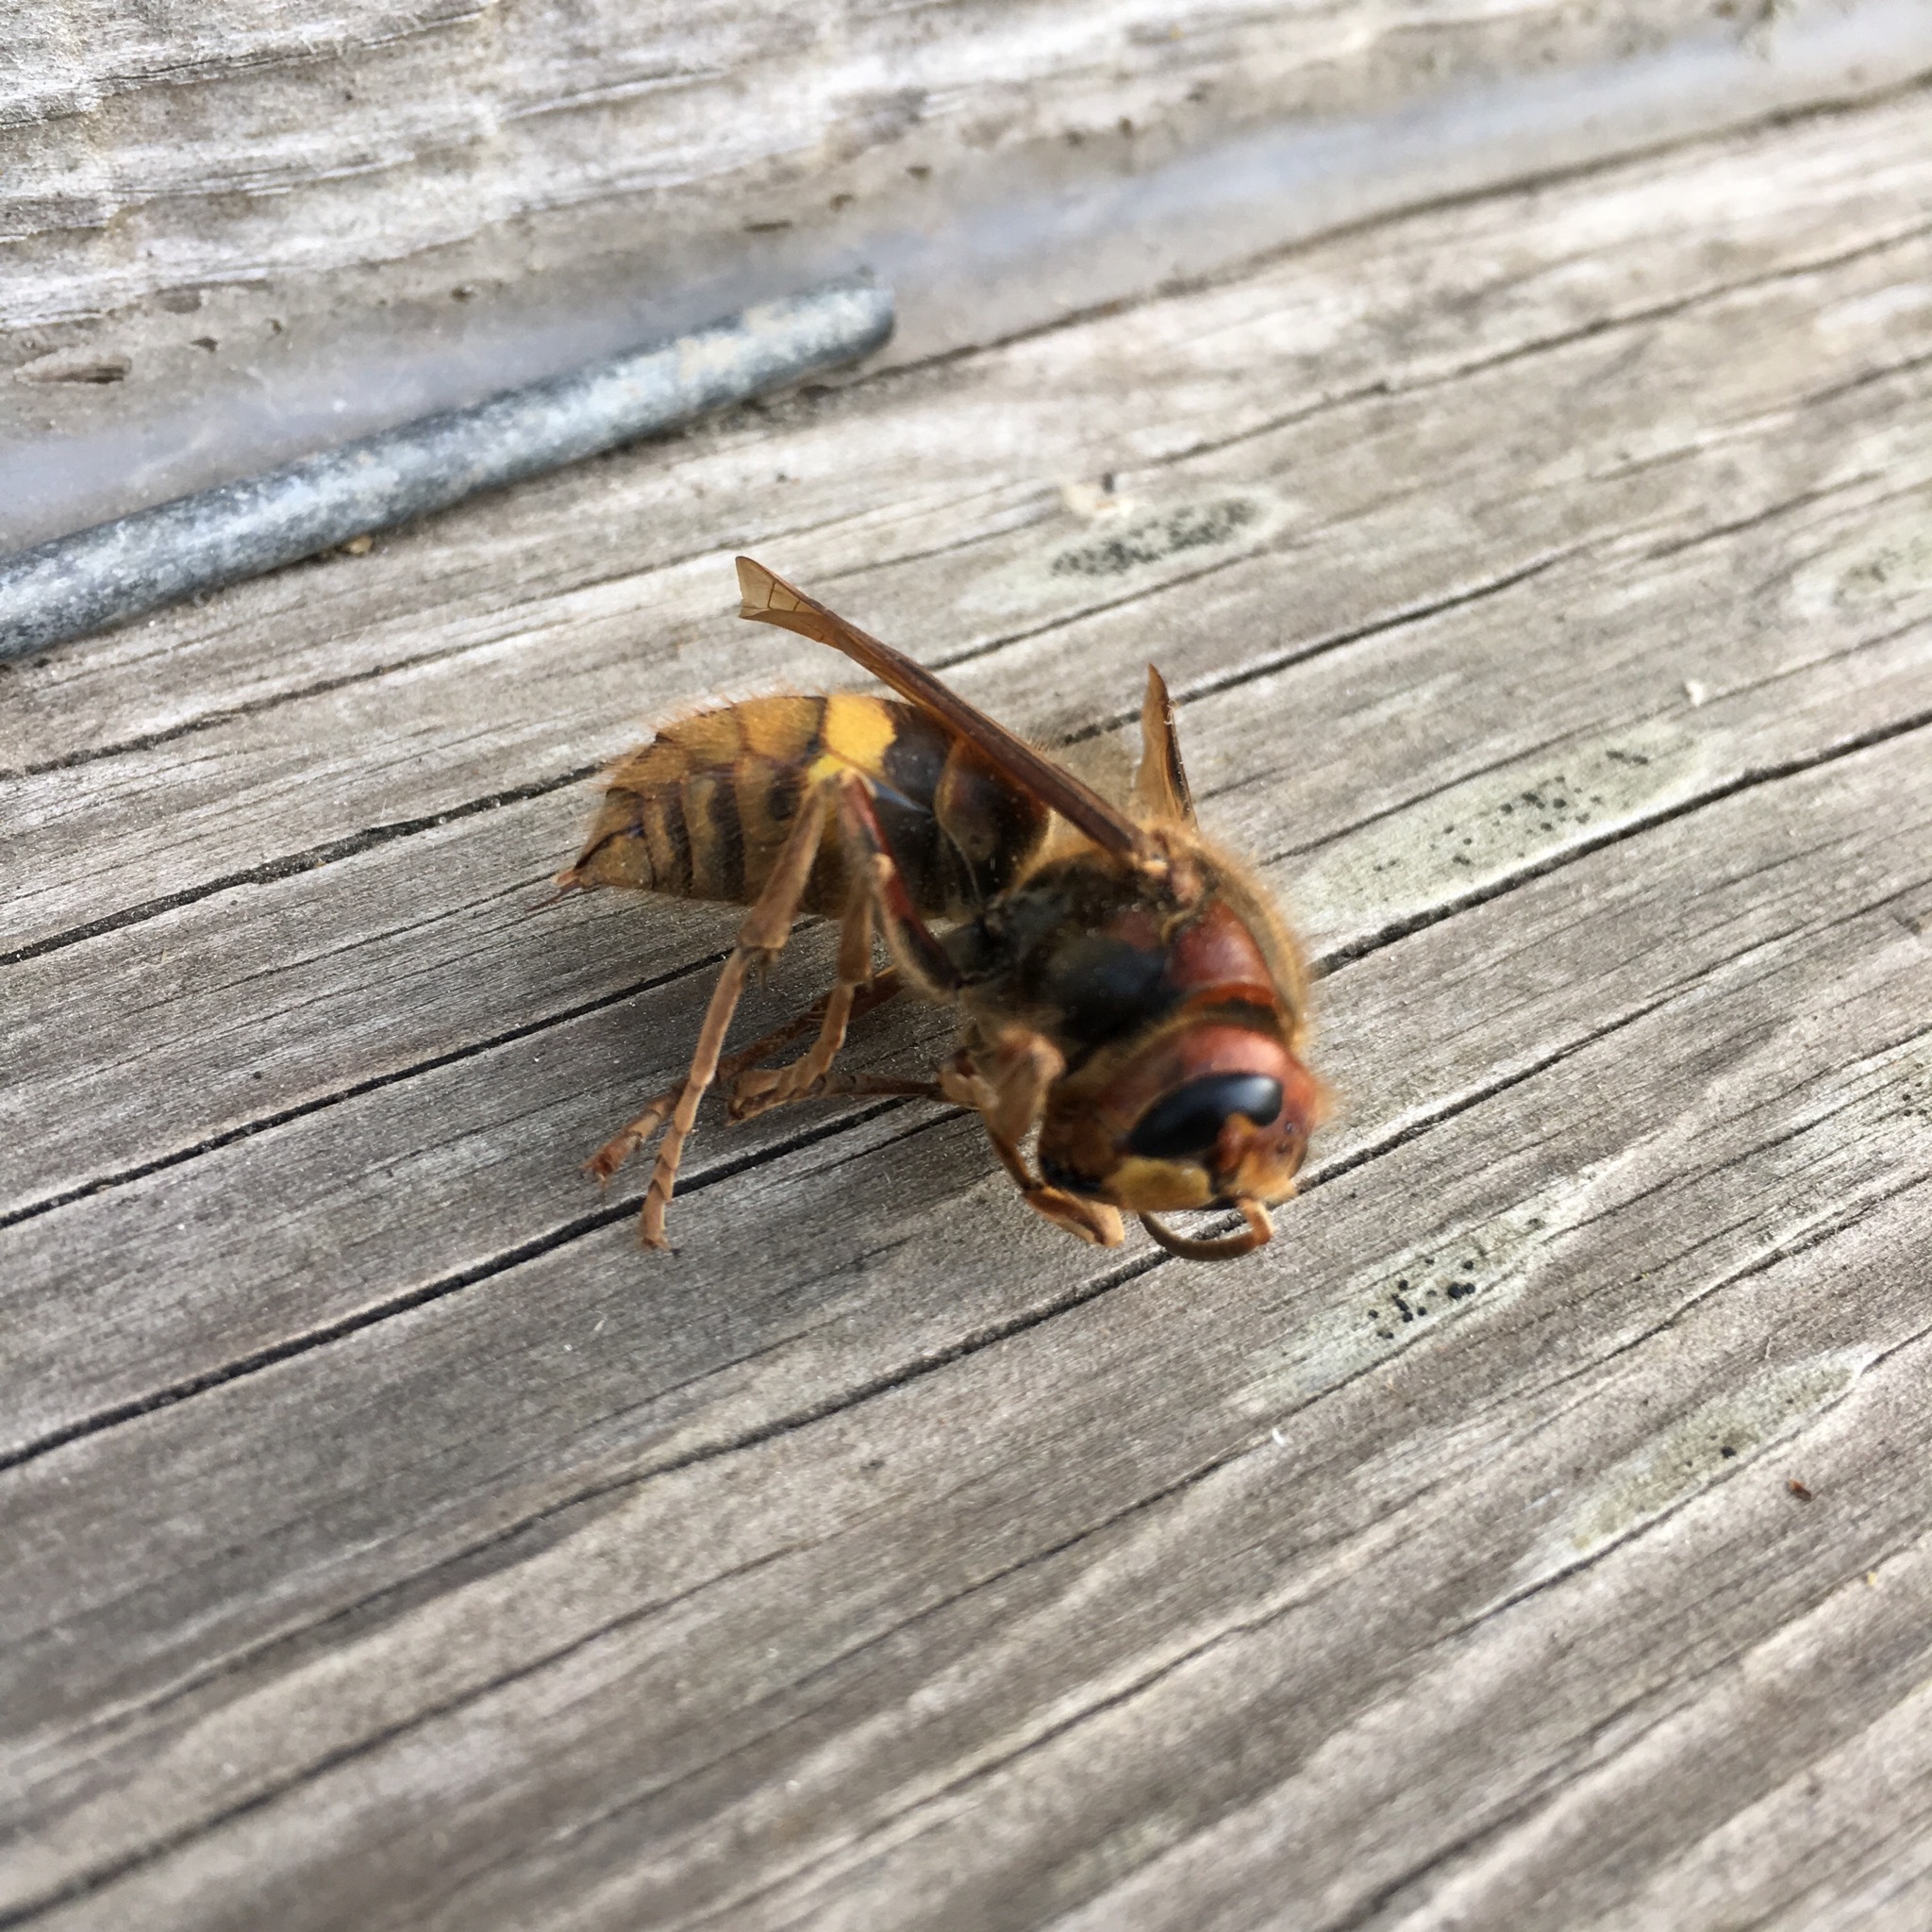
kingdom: Animalia
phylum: Arthropoda
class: Insecta
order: Hymenoptera
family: Vespidae
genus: Vespa
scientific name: Vespa crabro
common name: Hornet
